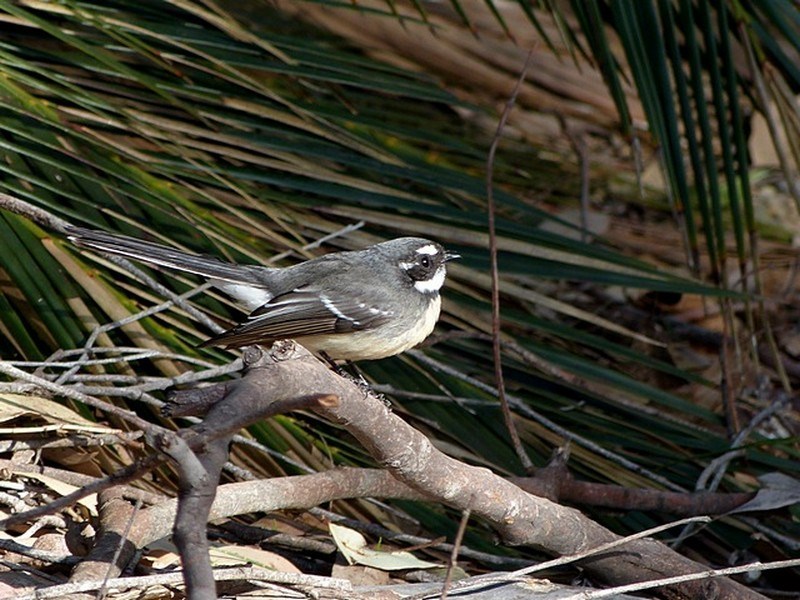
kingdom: Animalia
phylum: Chordata
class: Aves
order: Passeriformes
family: Rhipiduridae
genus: Rhipidura
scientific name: Rhipidura albiscapa
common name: Grey fantail
